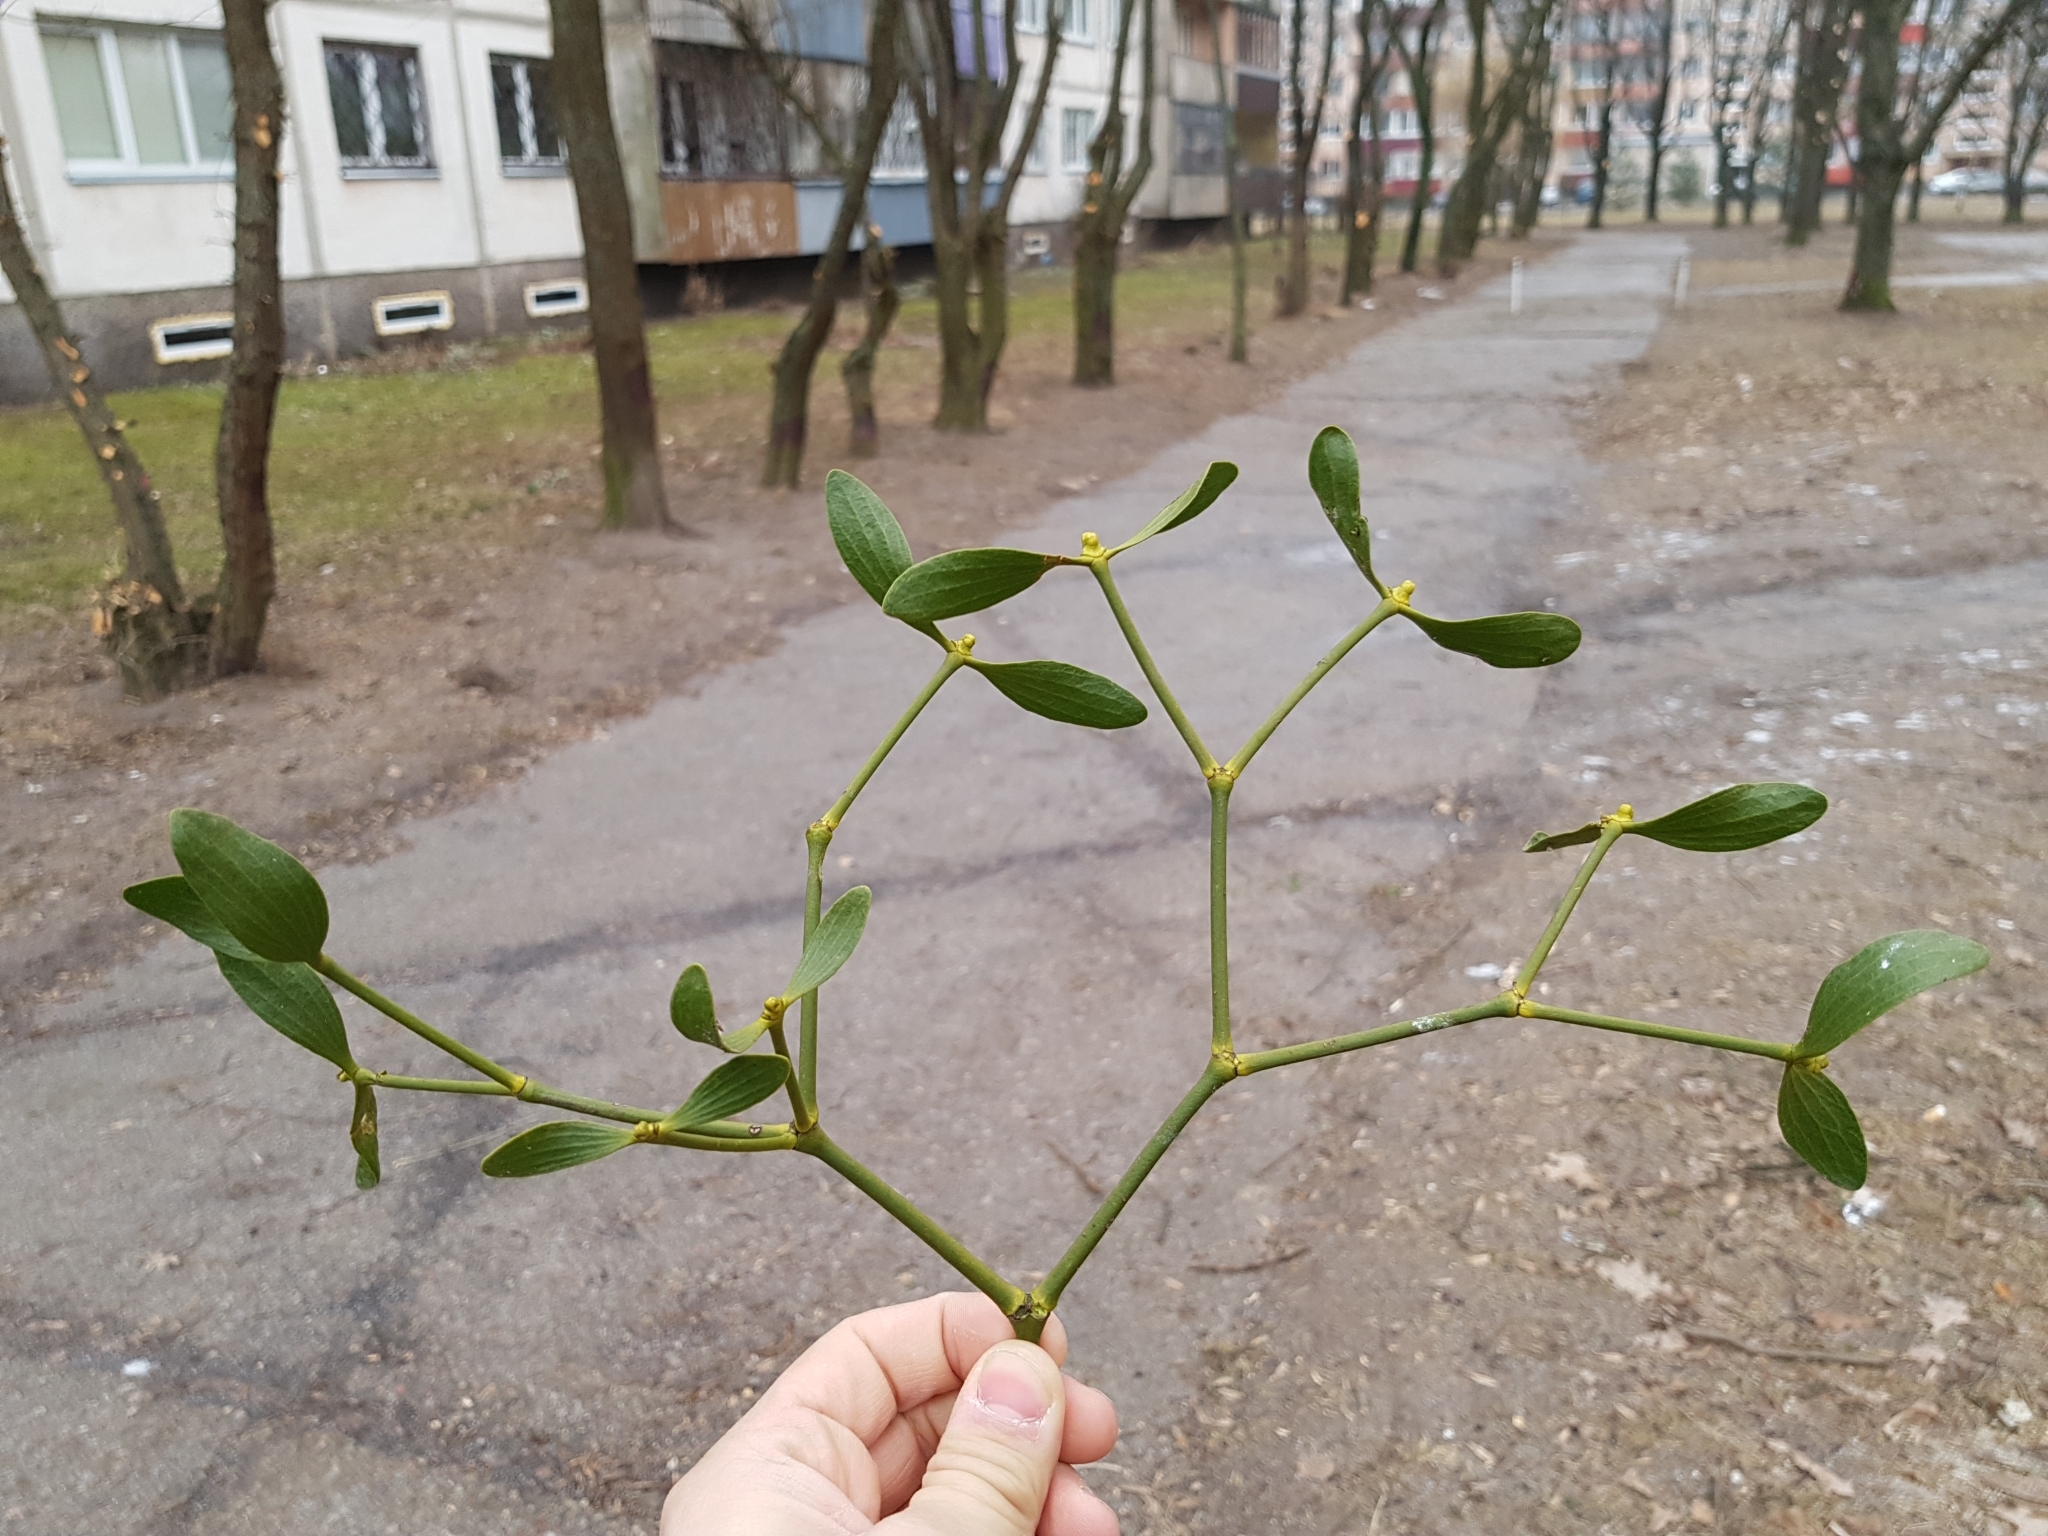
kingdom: Plantae
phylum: Tracheophyta
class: Magnoliopsida
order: Santalales
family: Viscaceae
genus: Viscum
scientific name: Viscum album
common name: Mistletoe
